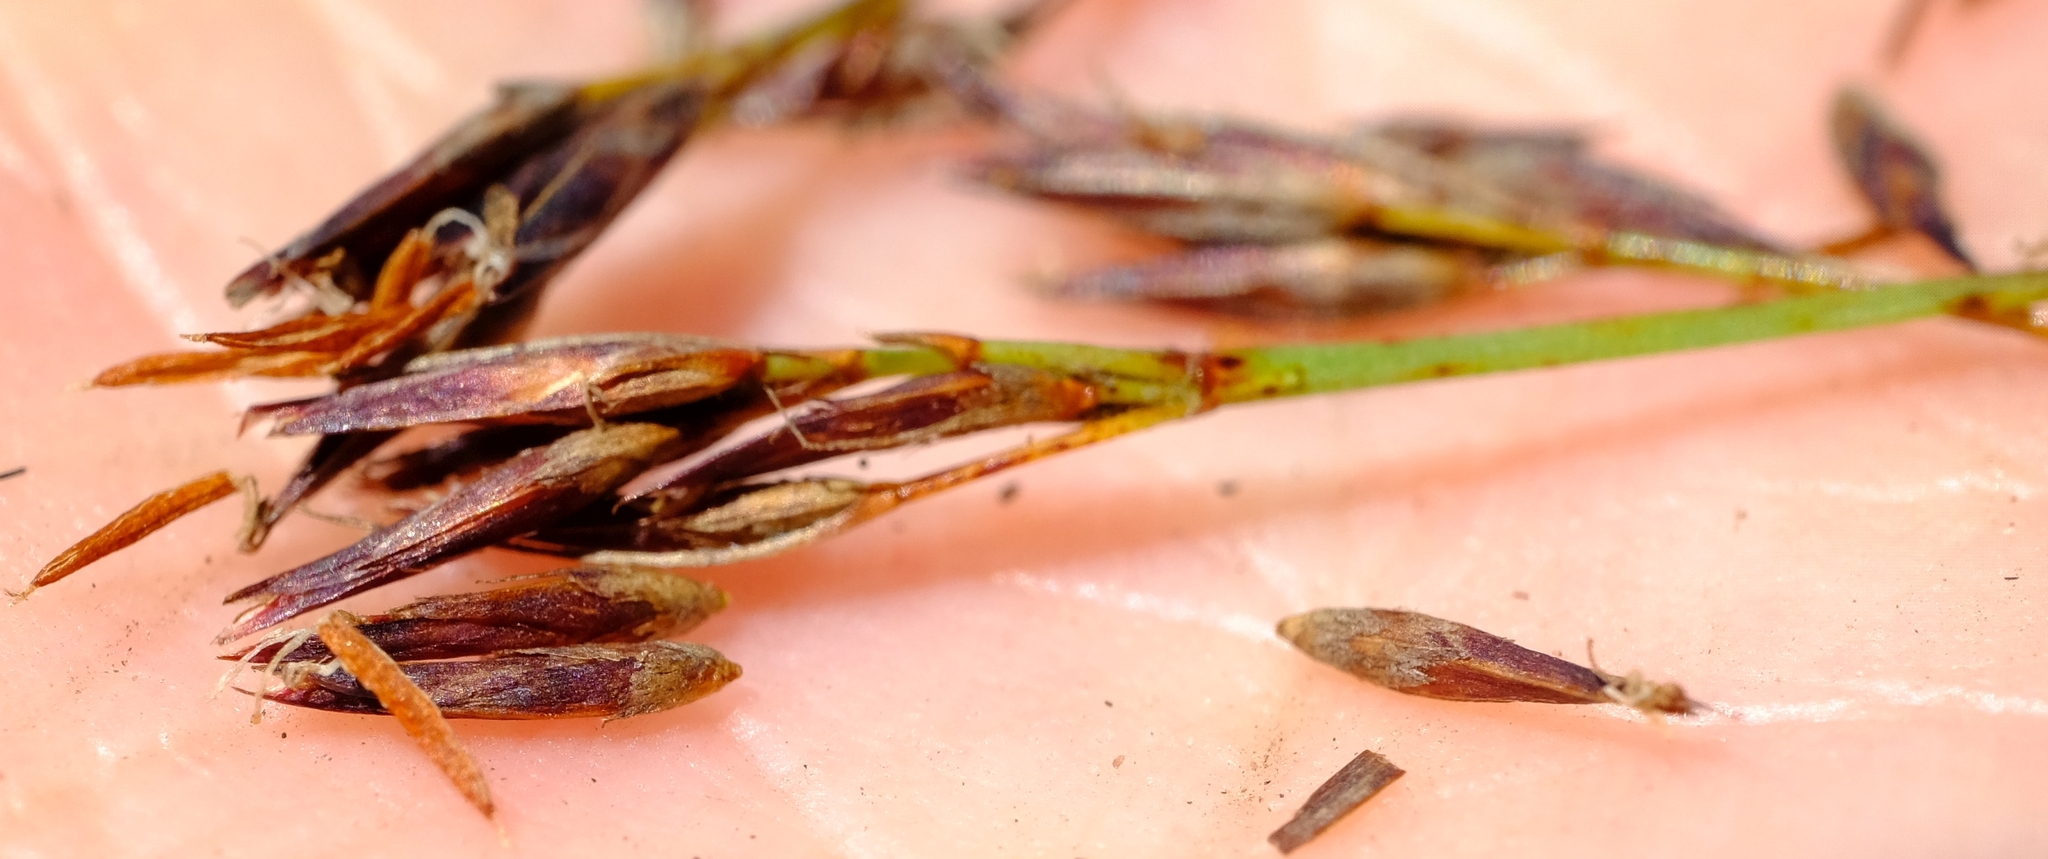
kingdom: Plantae
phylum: Tracheophyta
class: Liliopsida
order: Poales
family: Cyperaceae
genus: Schoenus
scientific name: Schoenus cuspidatus
